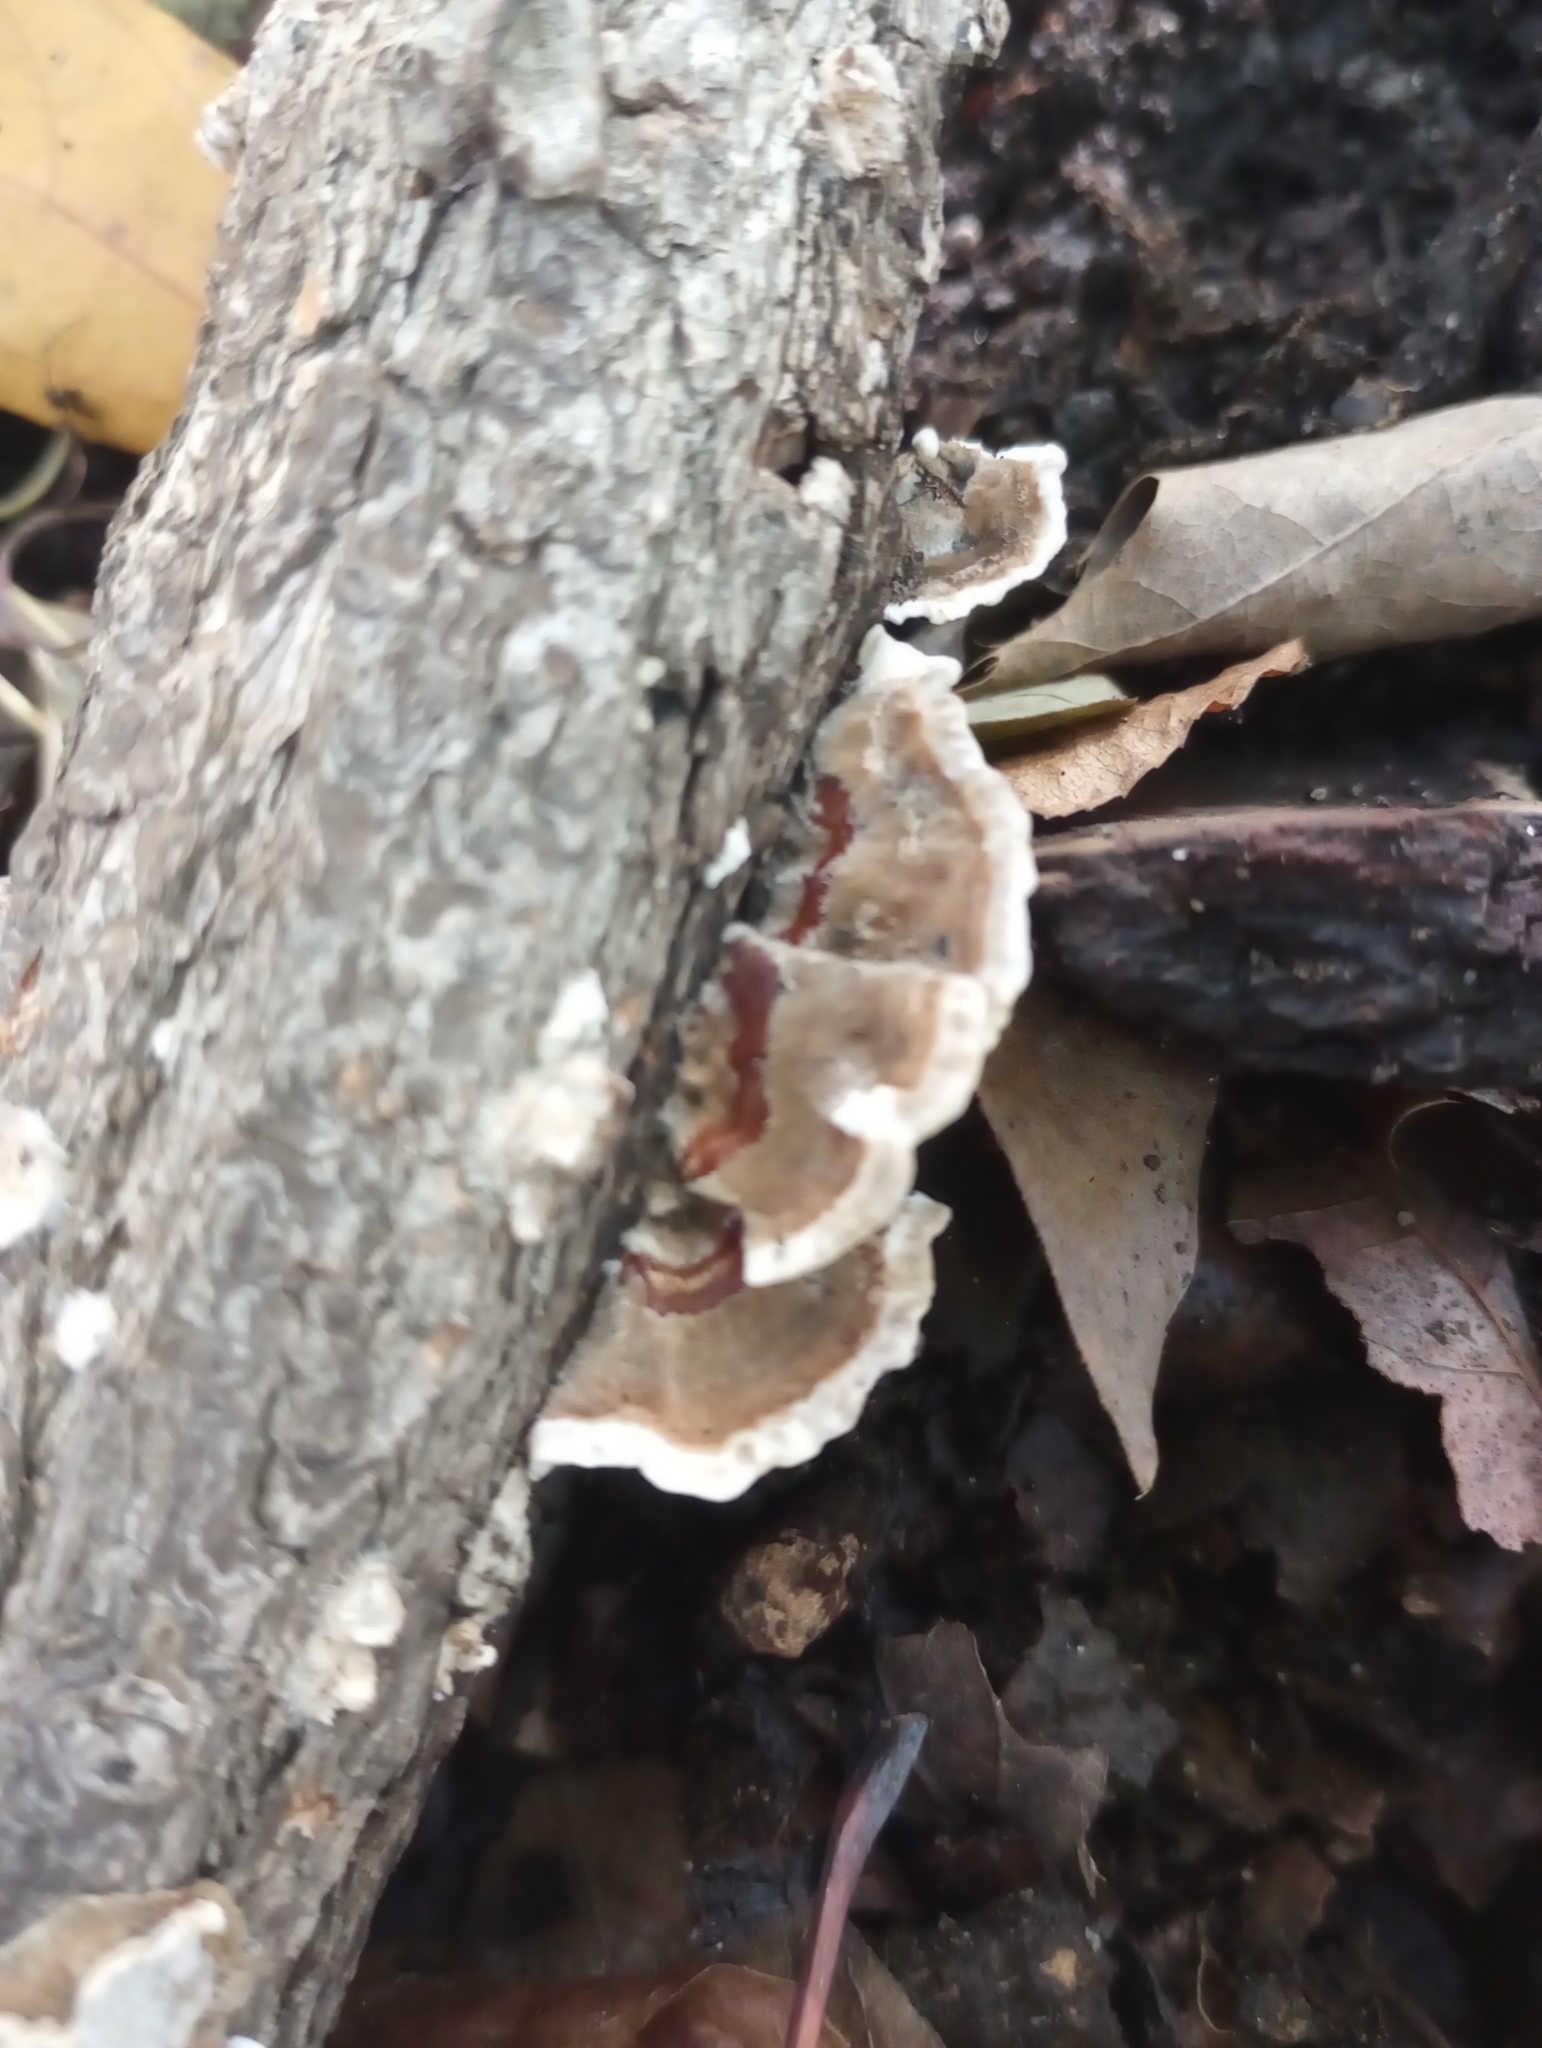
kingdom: Fungi
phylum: Basidiomycota
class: Agaricomycetes
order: Polyporales
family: Polyporaceae
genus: Trametes
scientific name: Trametes versicolor
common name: Turkeytail
